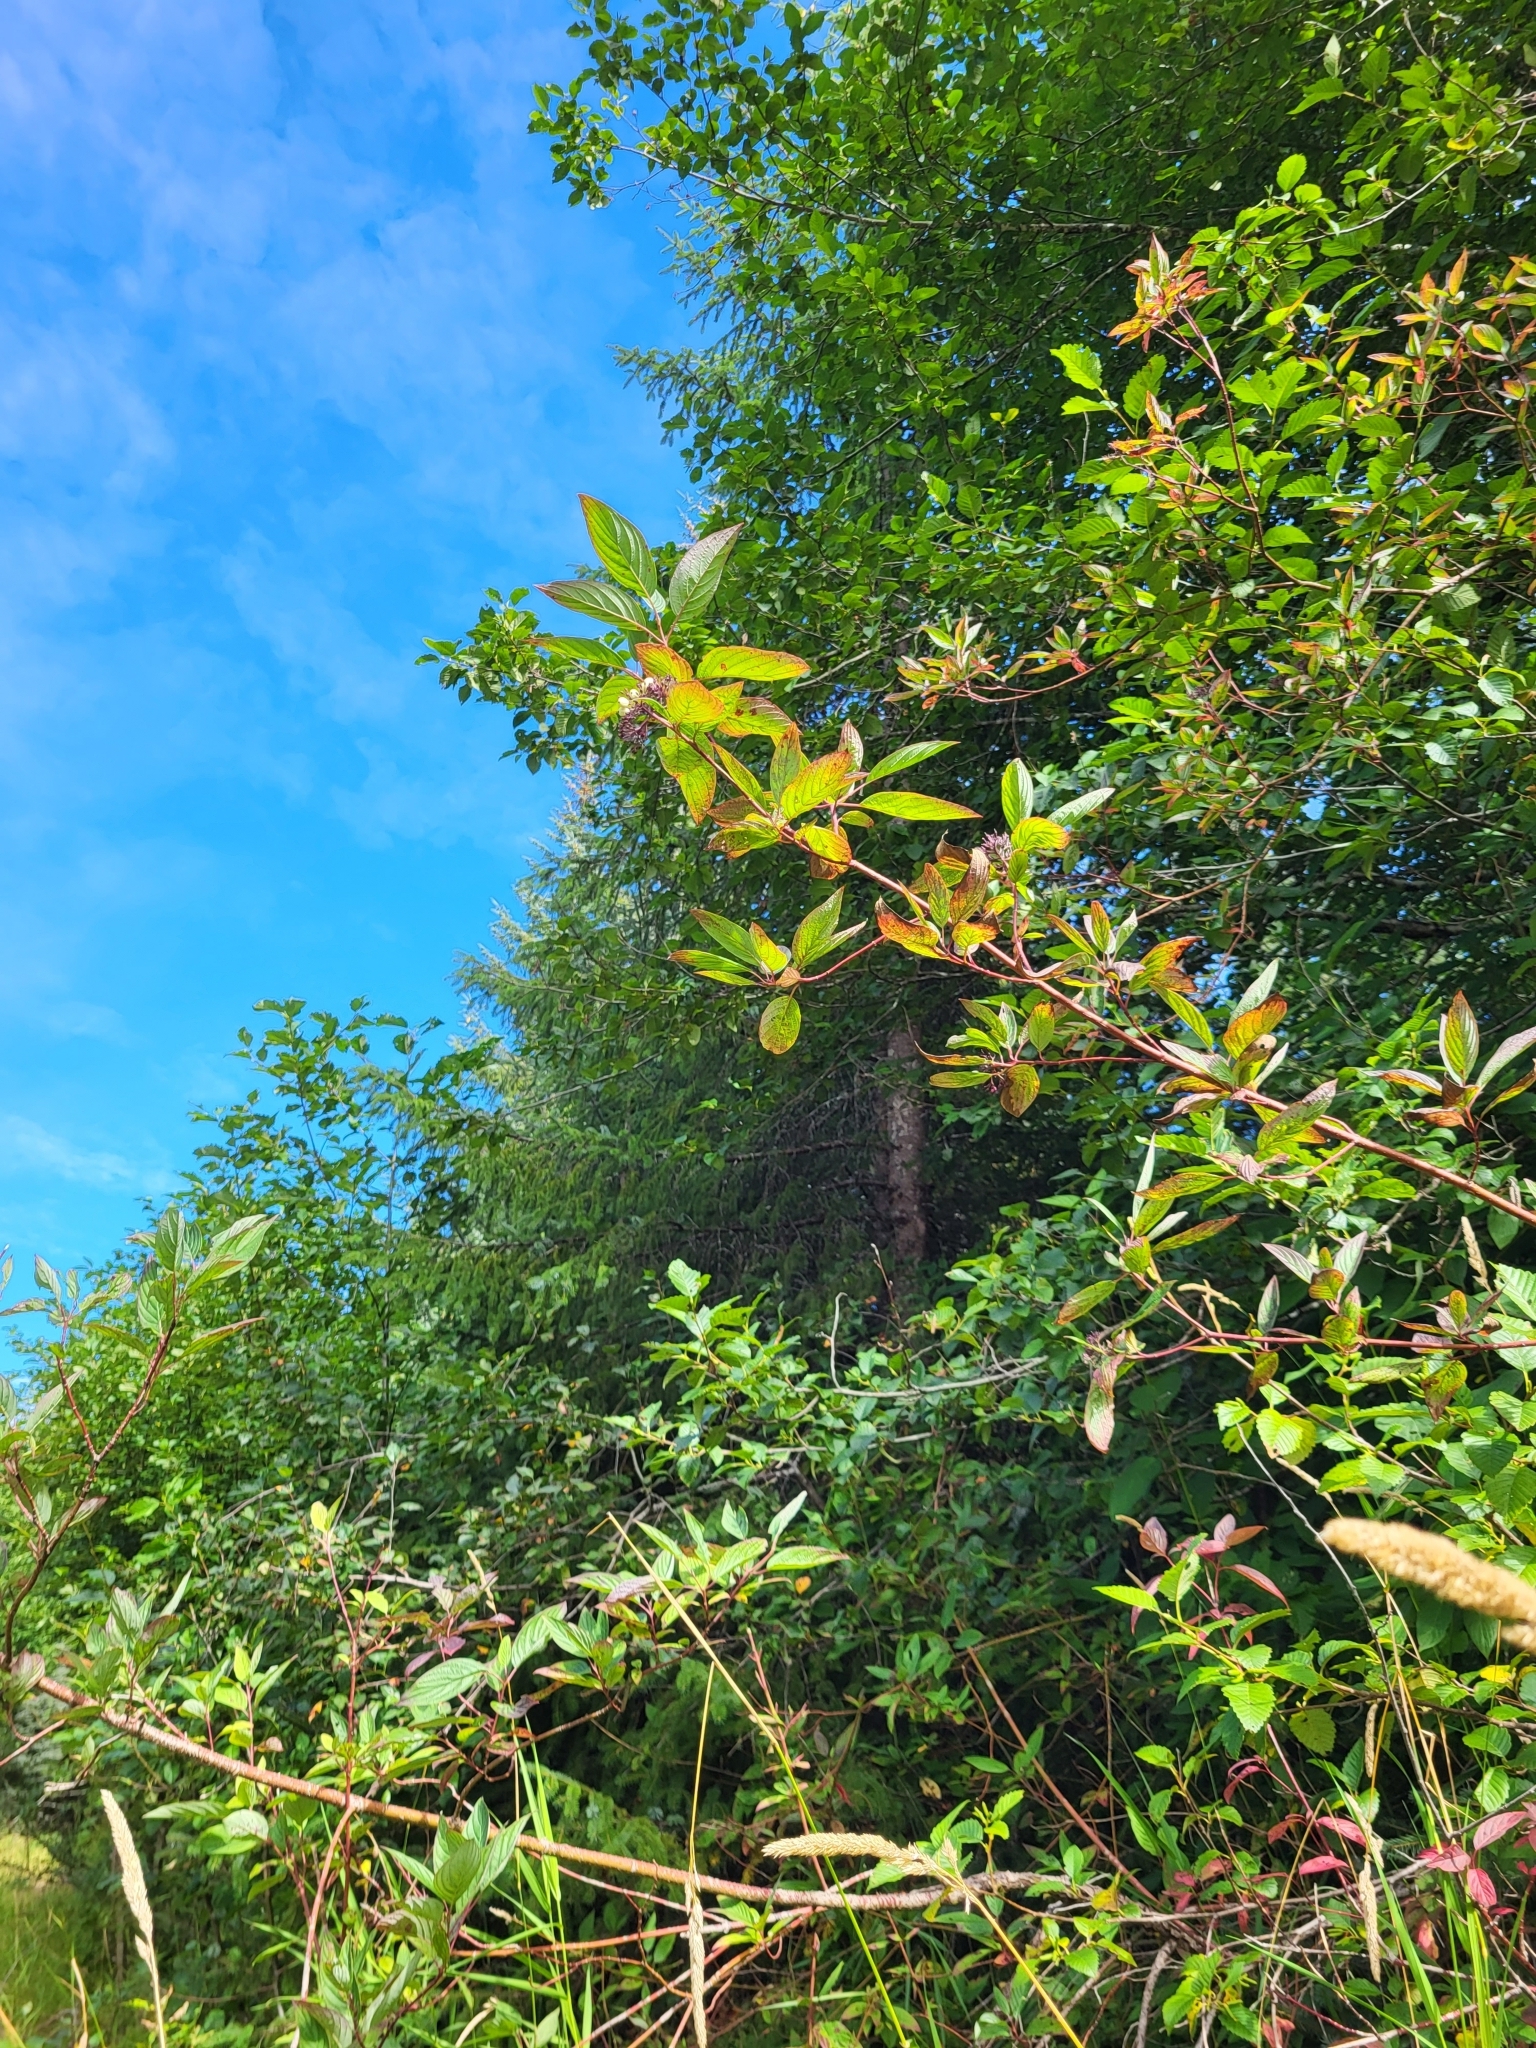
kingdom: Plantae
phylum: Tracheophyta
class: Magnoliopsida
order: Cornales
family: Cornaceae
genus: Cornus
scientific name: Cornus sericea
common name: Red-osier dogwood
